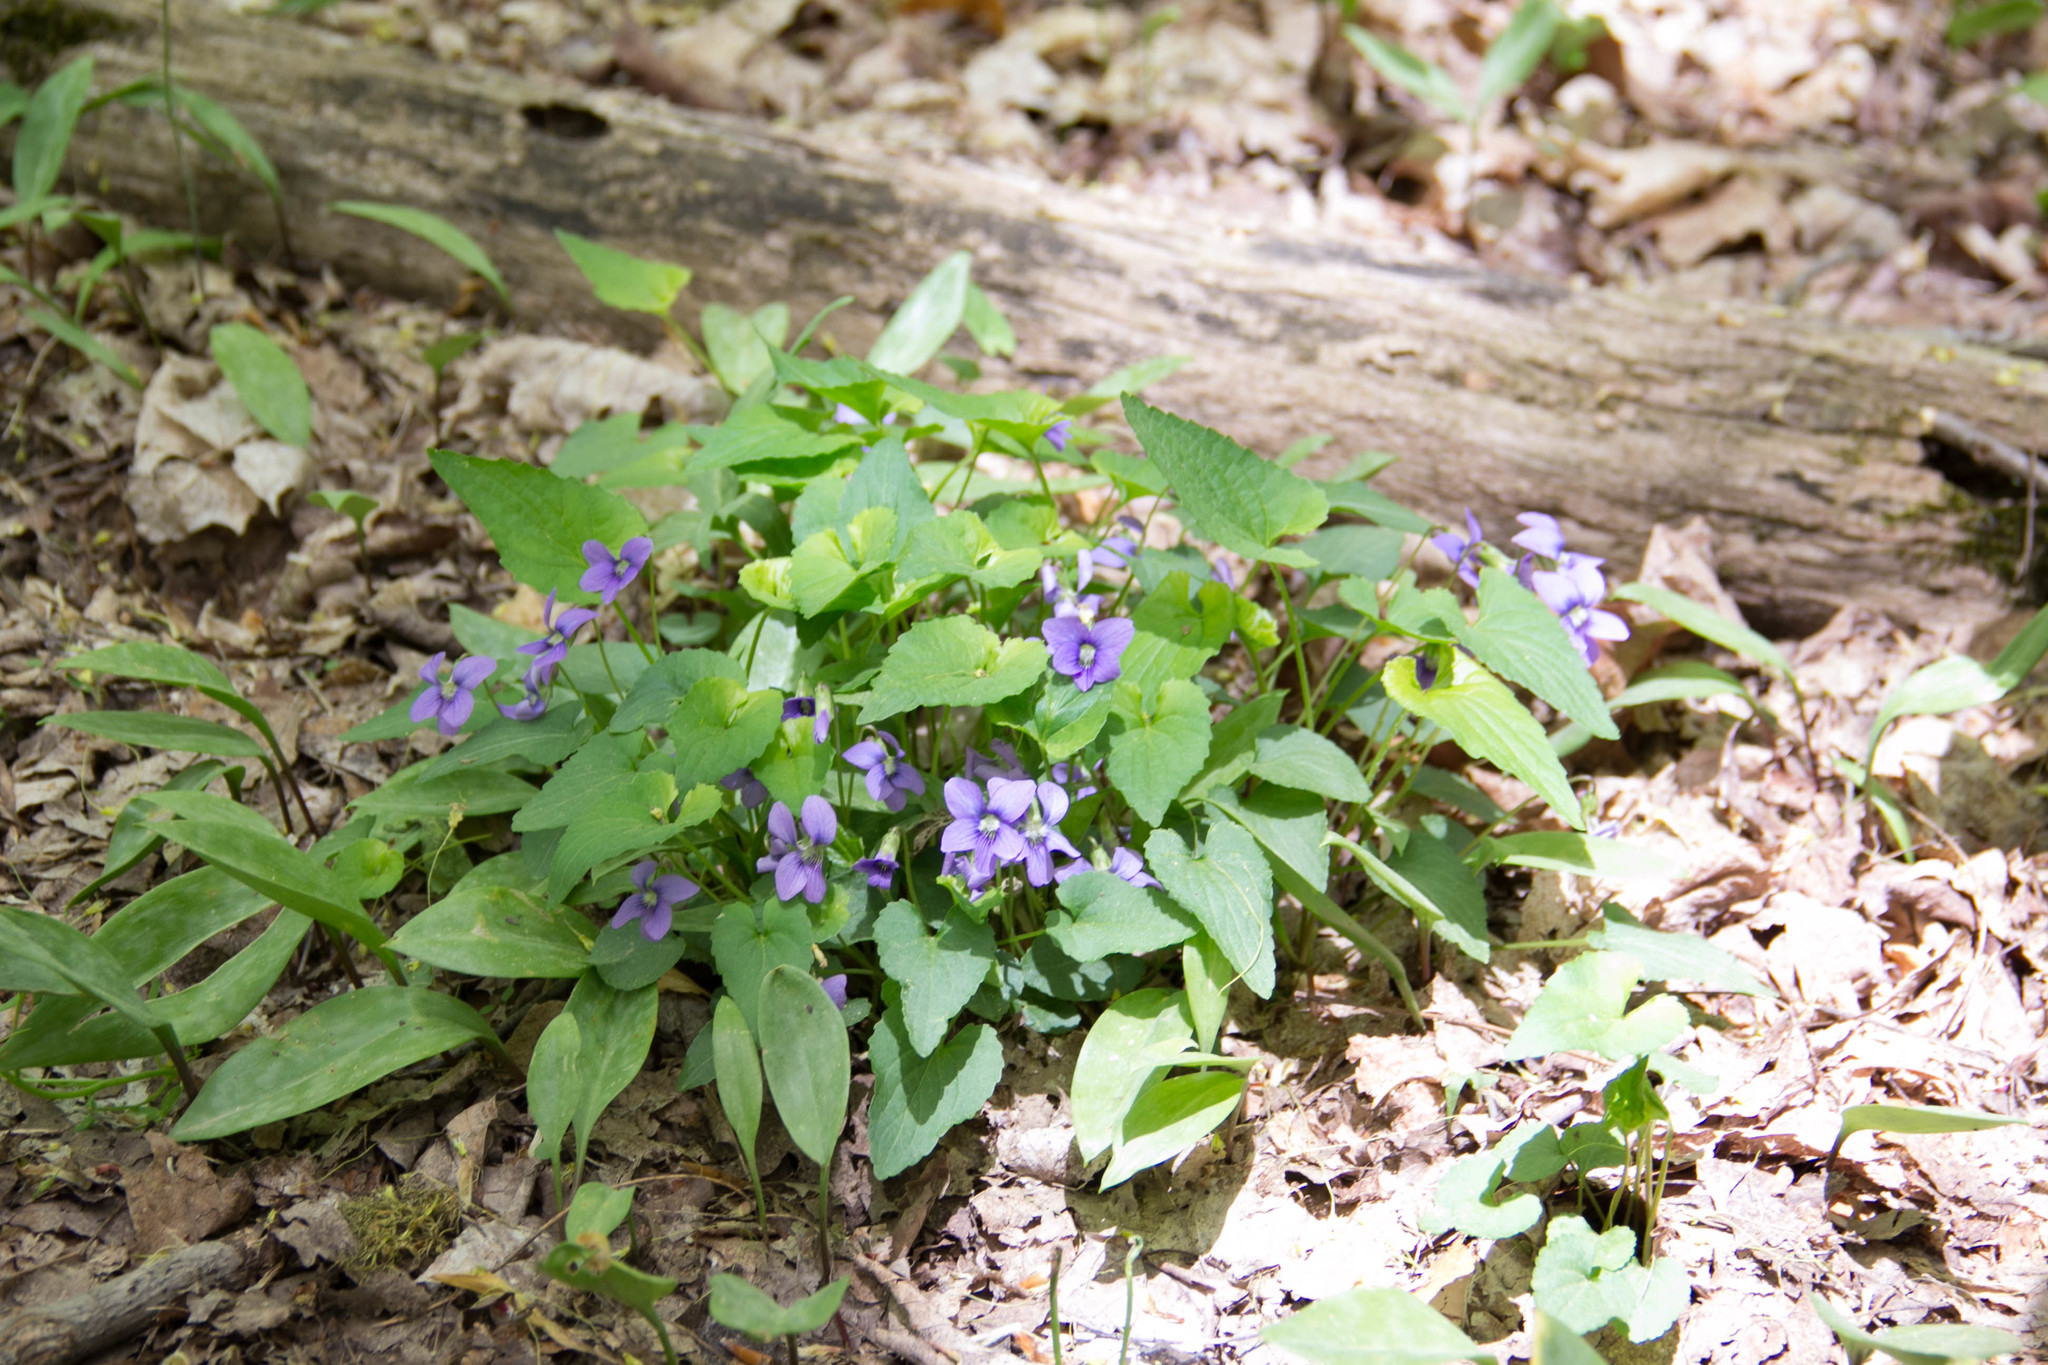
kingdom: Plantae
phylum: Tracheophyta
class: Magnoliopsida
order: Malpighiales
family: Violaceae
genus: Viola
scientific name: Viola cucullata
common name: Marsh blue violet
